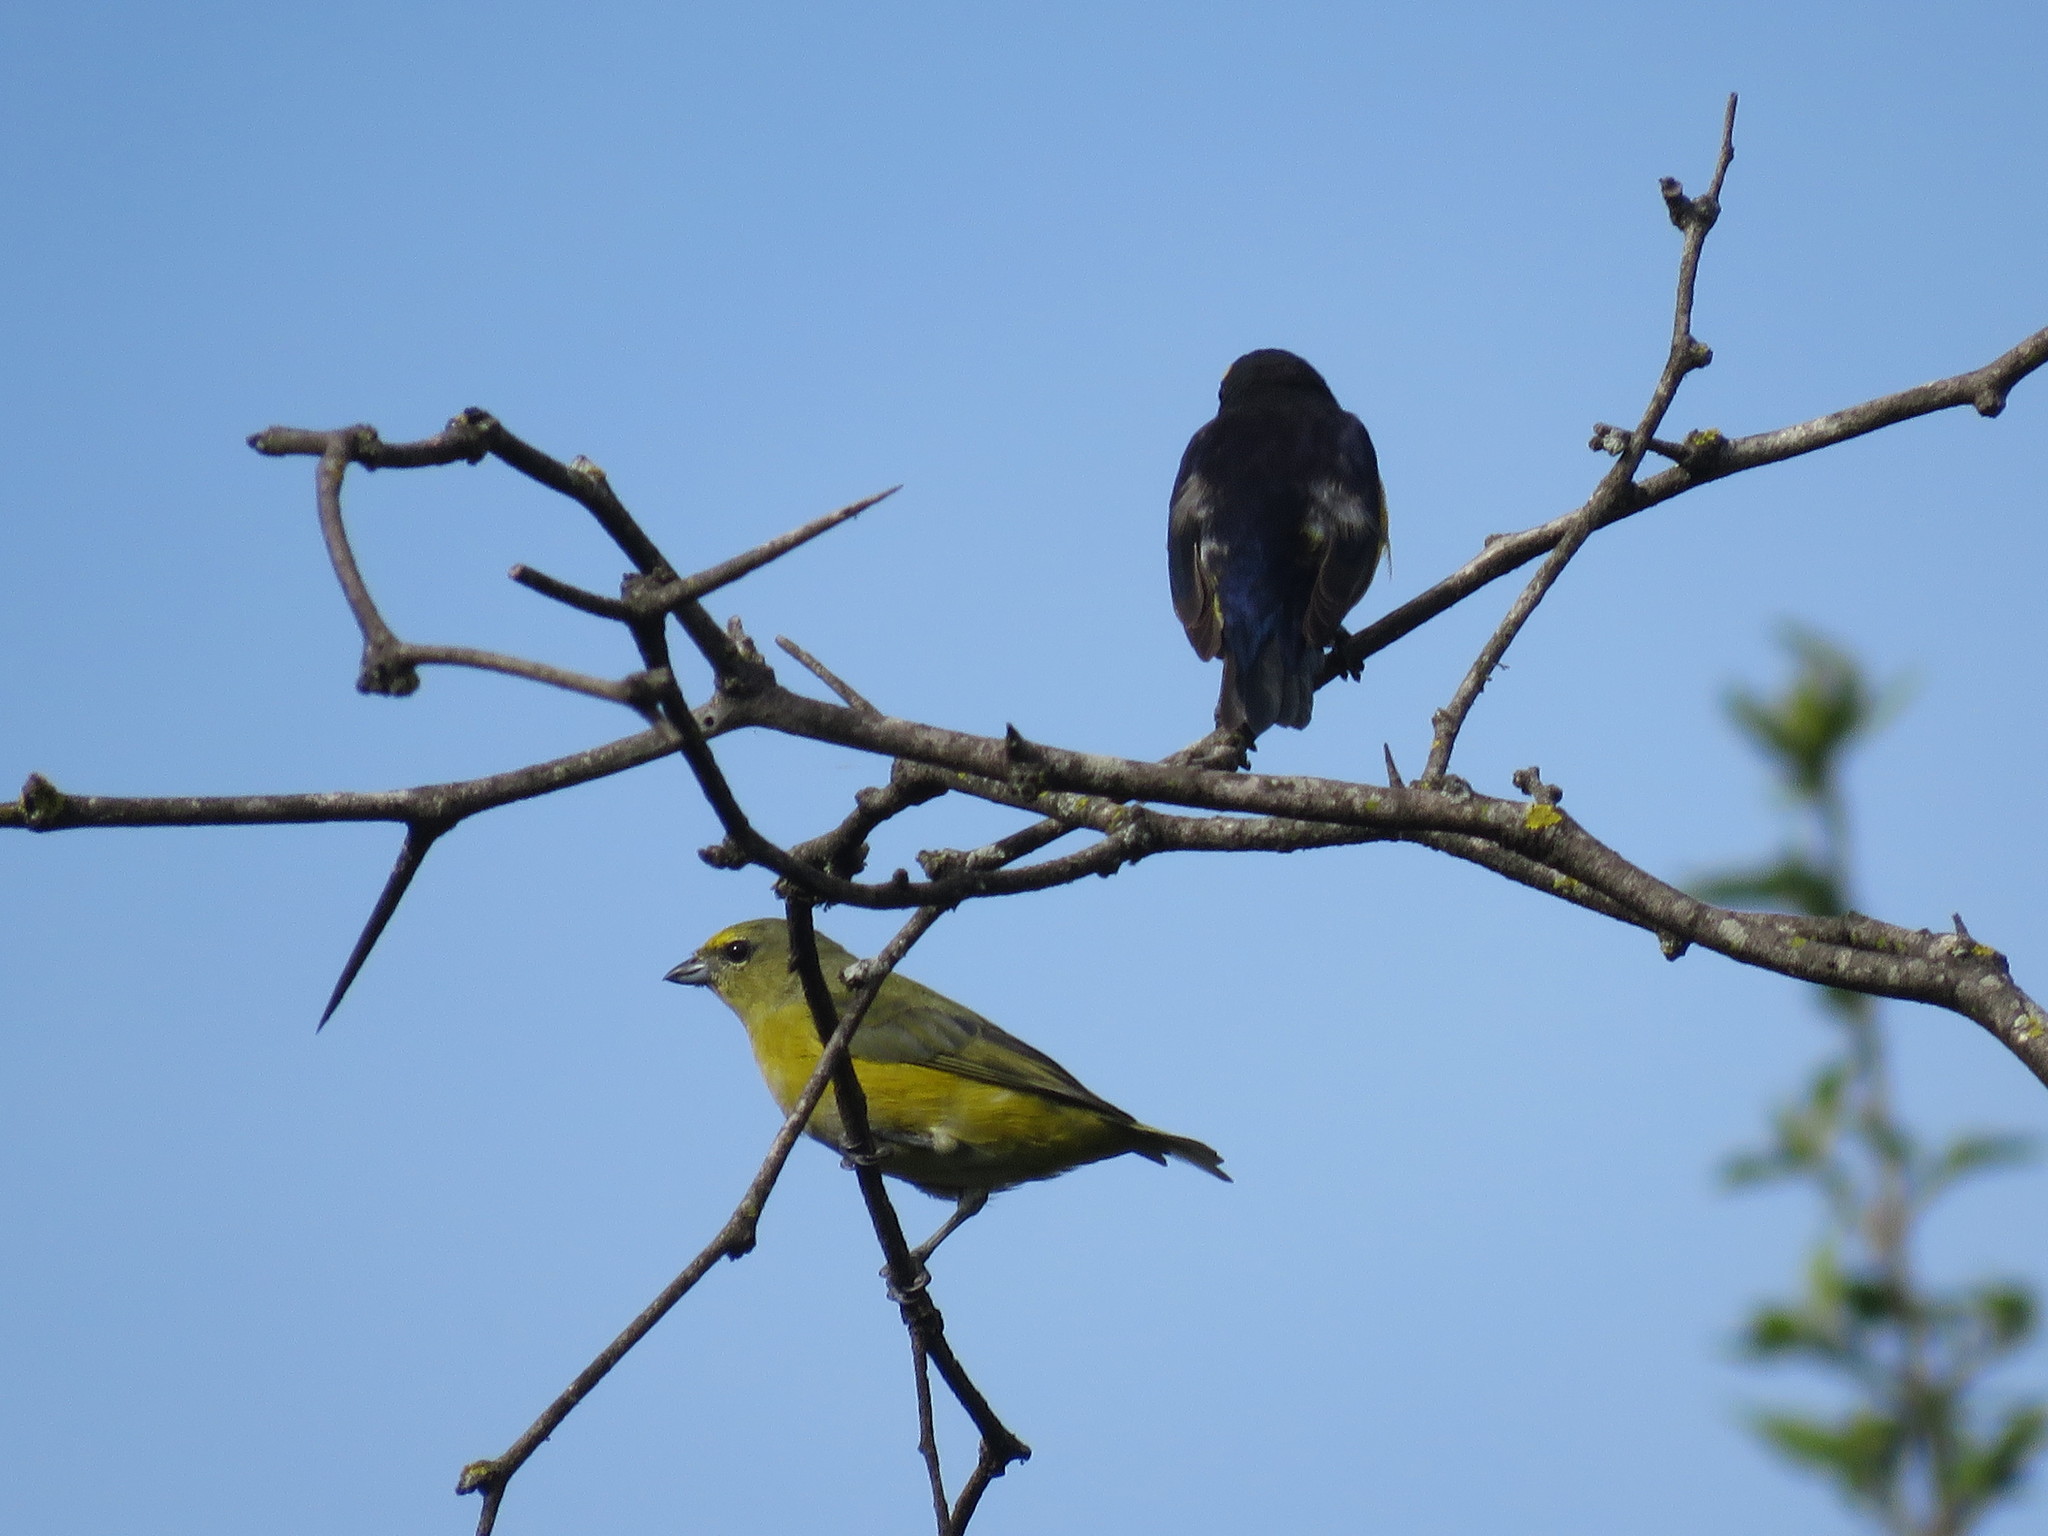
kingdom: Animalia
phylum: Chordata
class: Aves
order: Passeriformes
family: Fringillidae
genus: Euphonia
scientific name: Euphonia chlorotica
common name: Purple-throated euphonia
